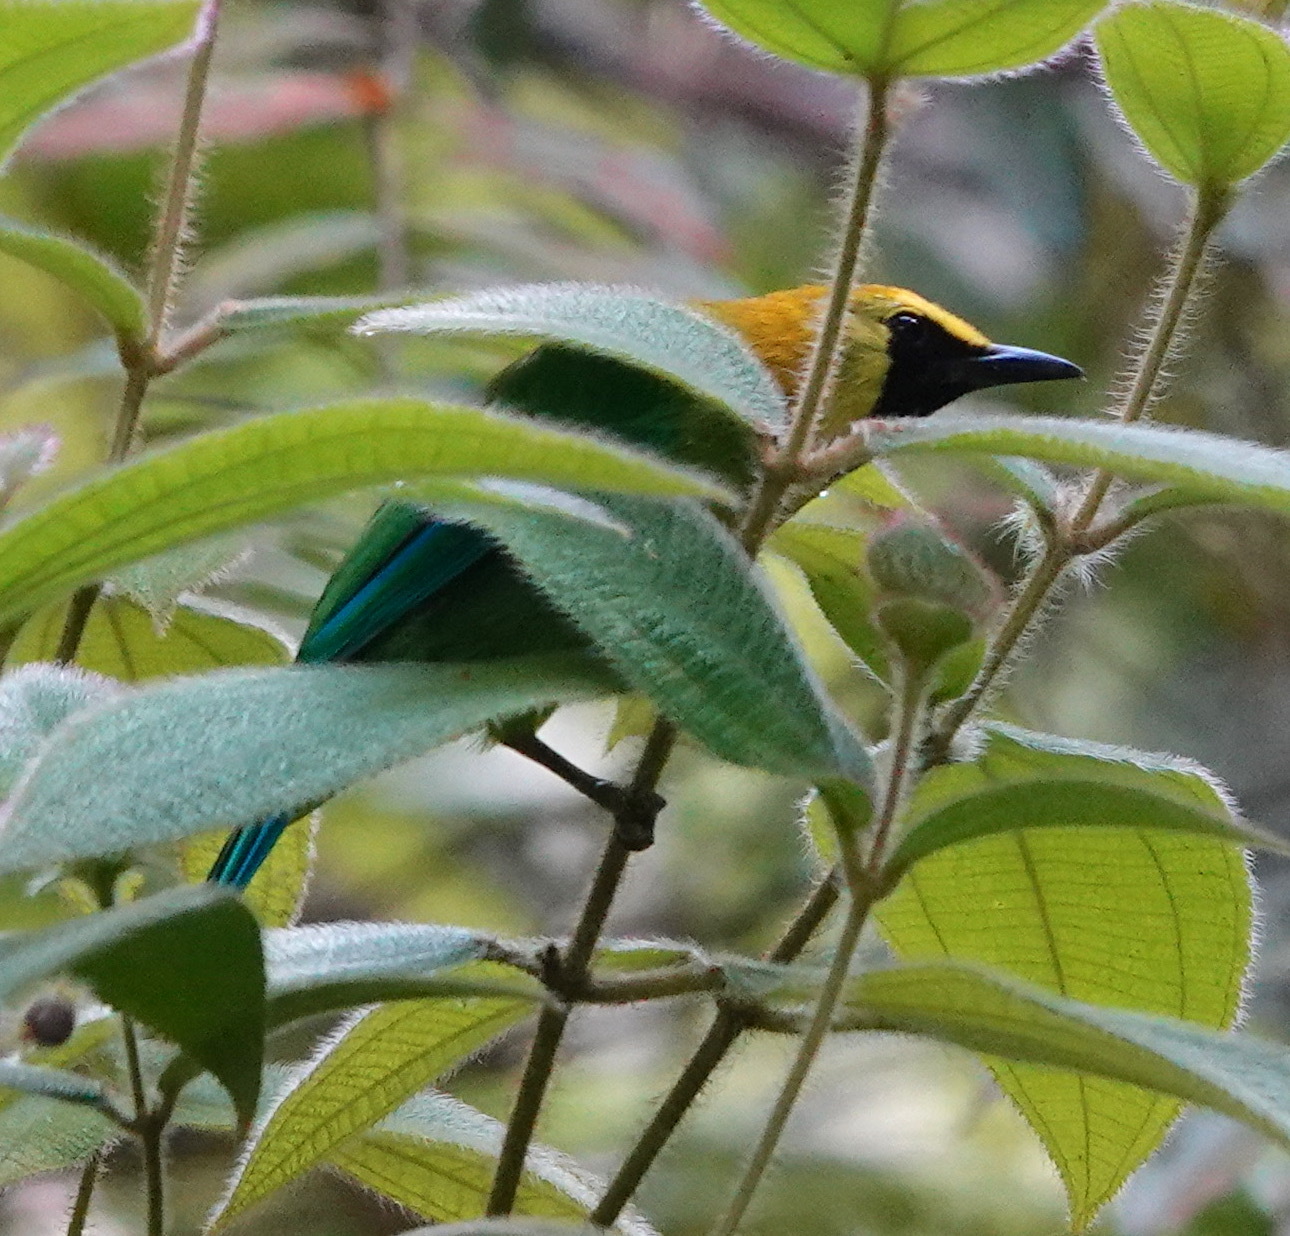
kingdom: Animalia
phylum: Chordata
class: Aves
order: Passeriformes
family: Chloropseidae
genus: Chloropsis
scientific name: Chloropsis moluccensis
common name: Blue-winged leafbird
